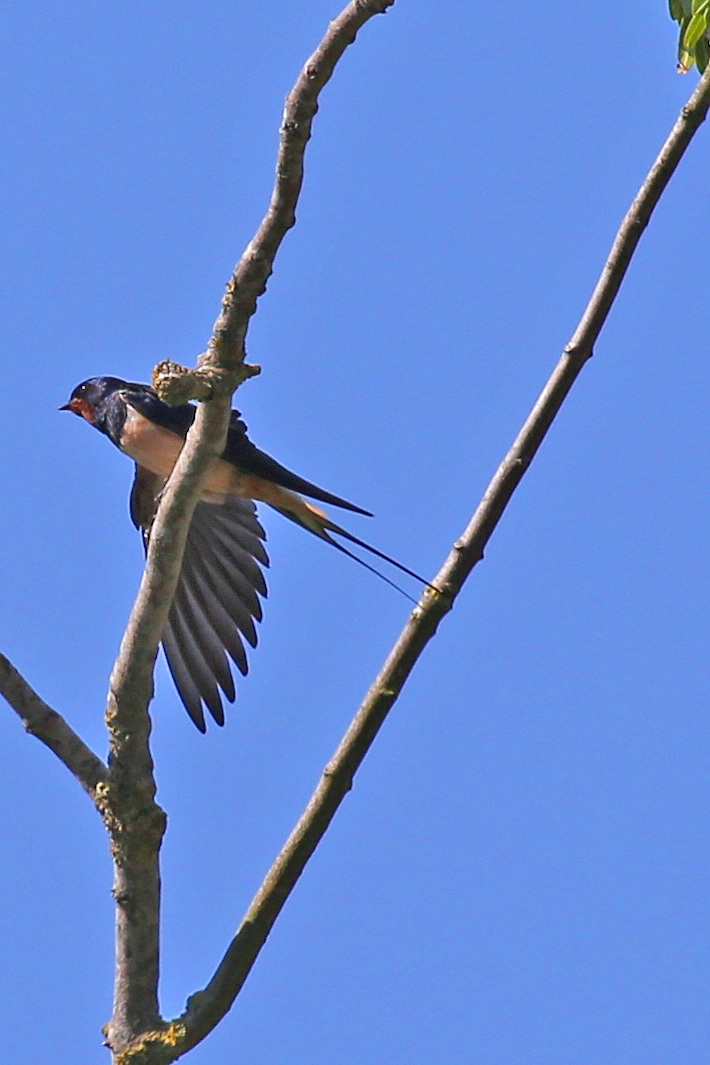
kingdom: Animalia
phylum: Chordata
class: Aves
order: Passeriformes
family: Hirundinidae
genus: Hirundo
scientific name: Hirundo rustica
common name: Barn swallow
